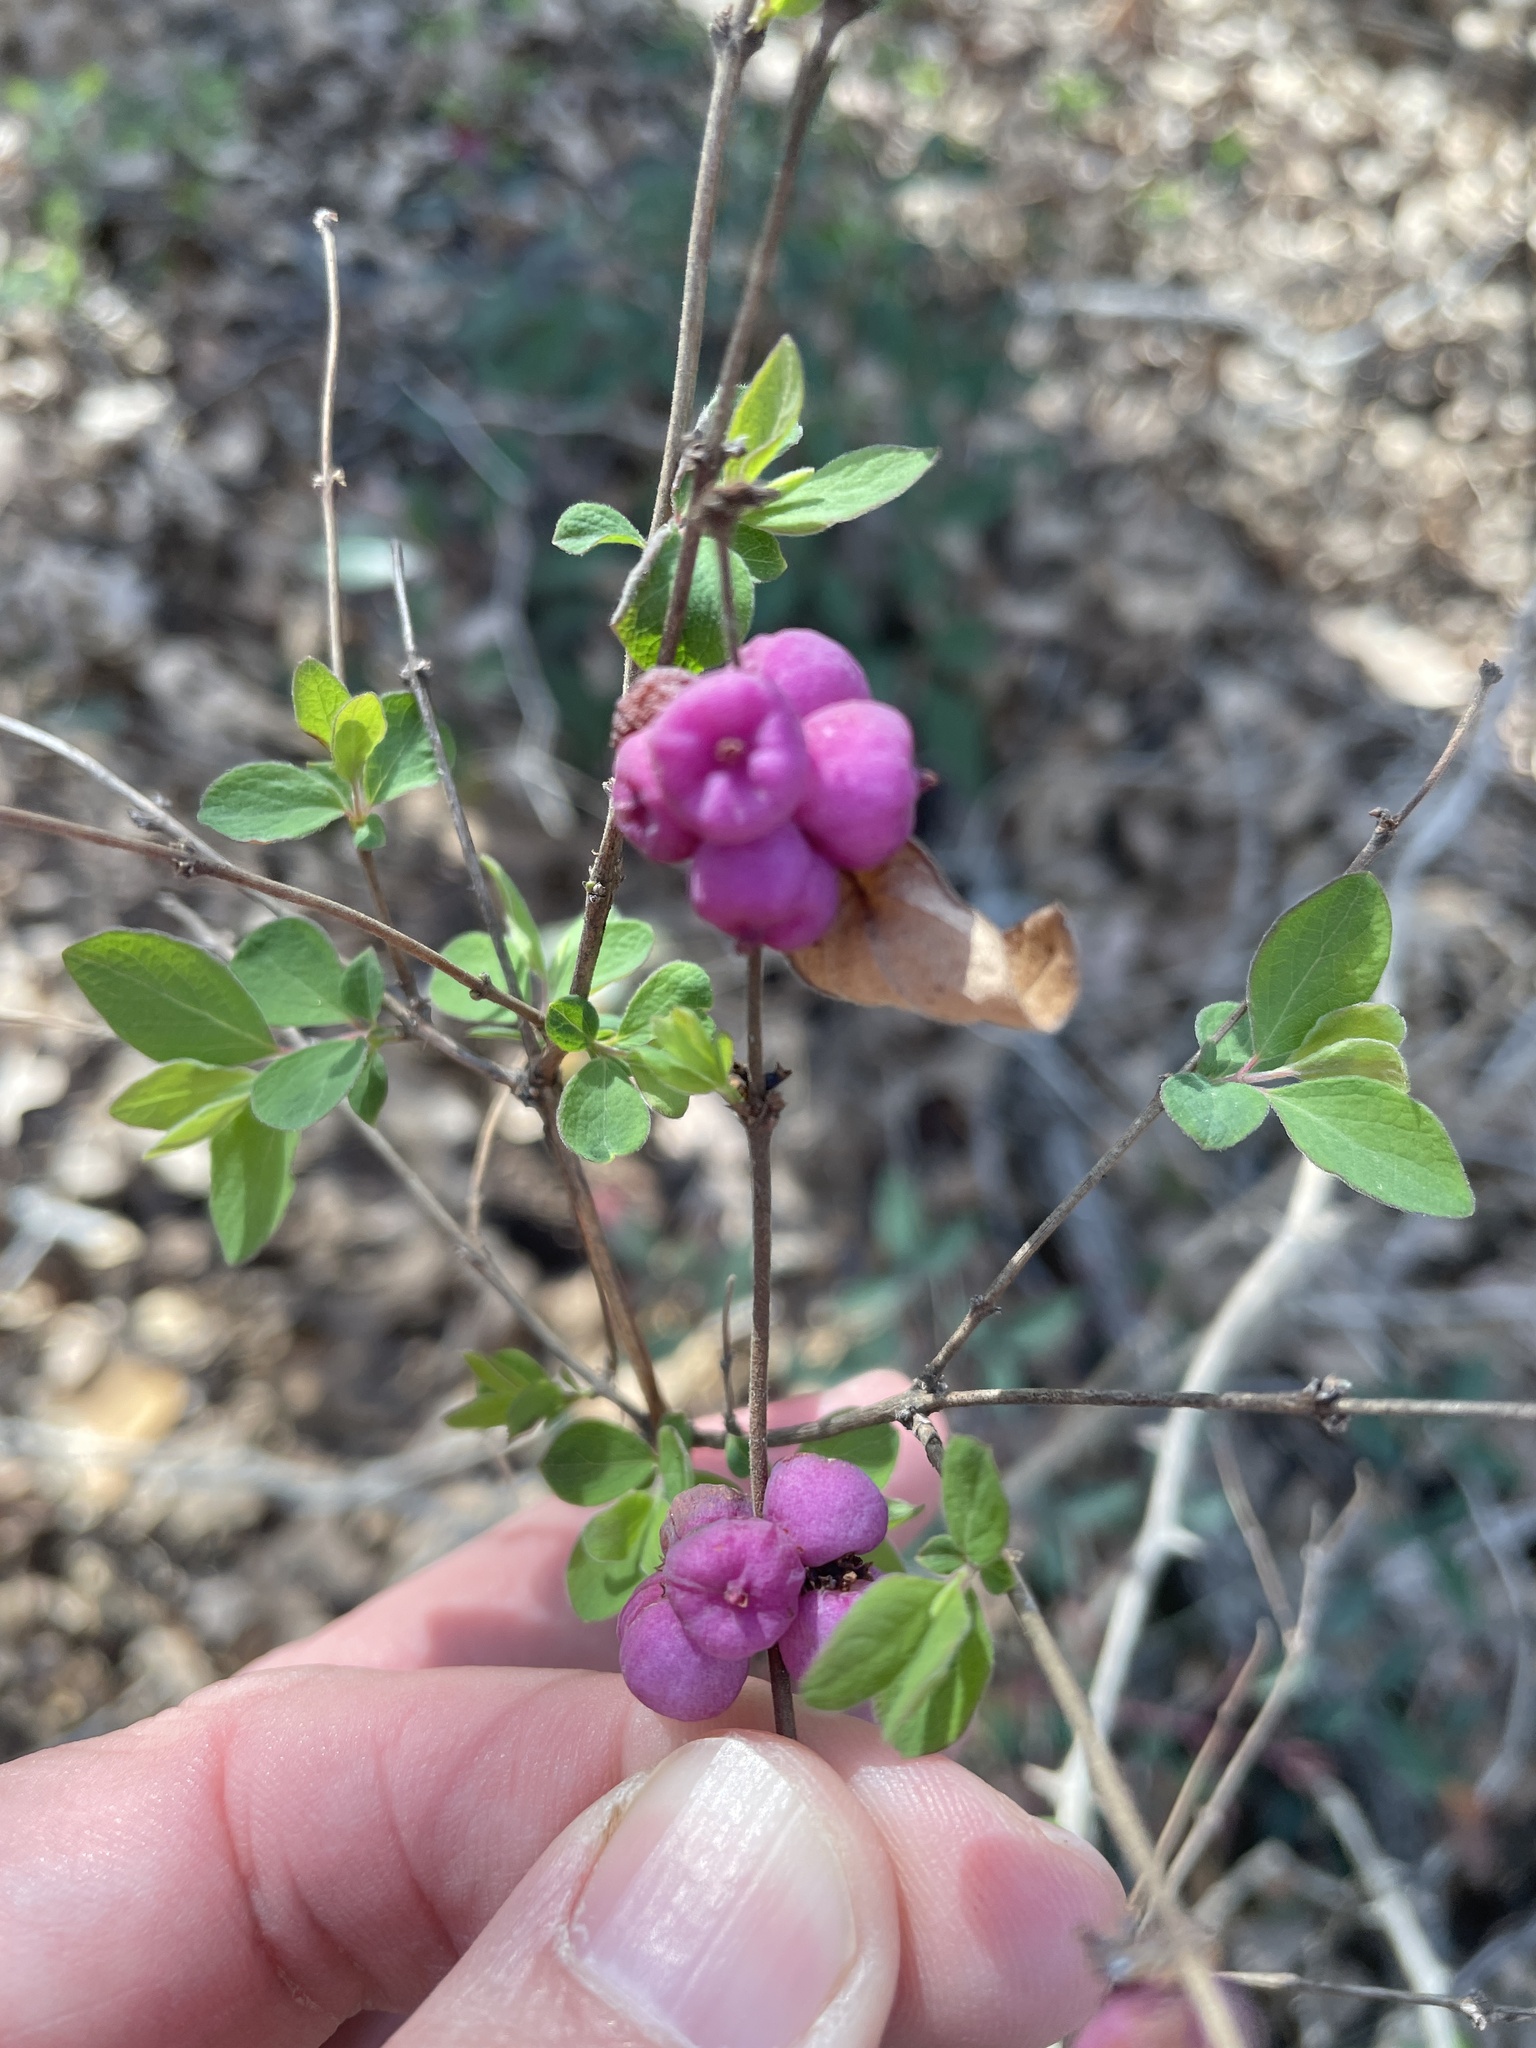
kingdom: Plantae
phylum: Tracheophyta
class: Magnoliopsida
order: Dipsacales
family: Caprifoliaceae
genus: Symphoricarpos
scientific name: Symphoricarpos orbiculatus
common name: Coralberry
